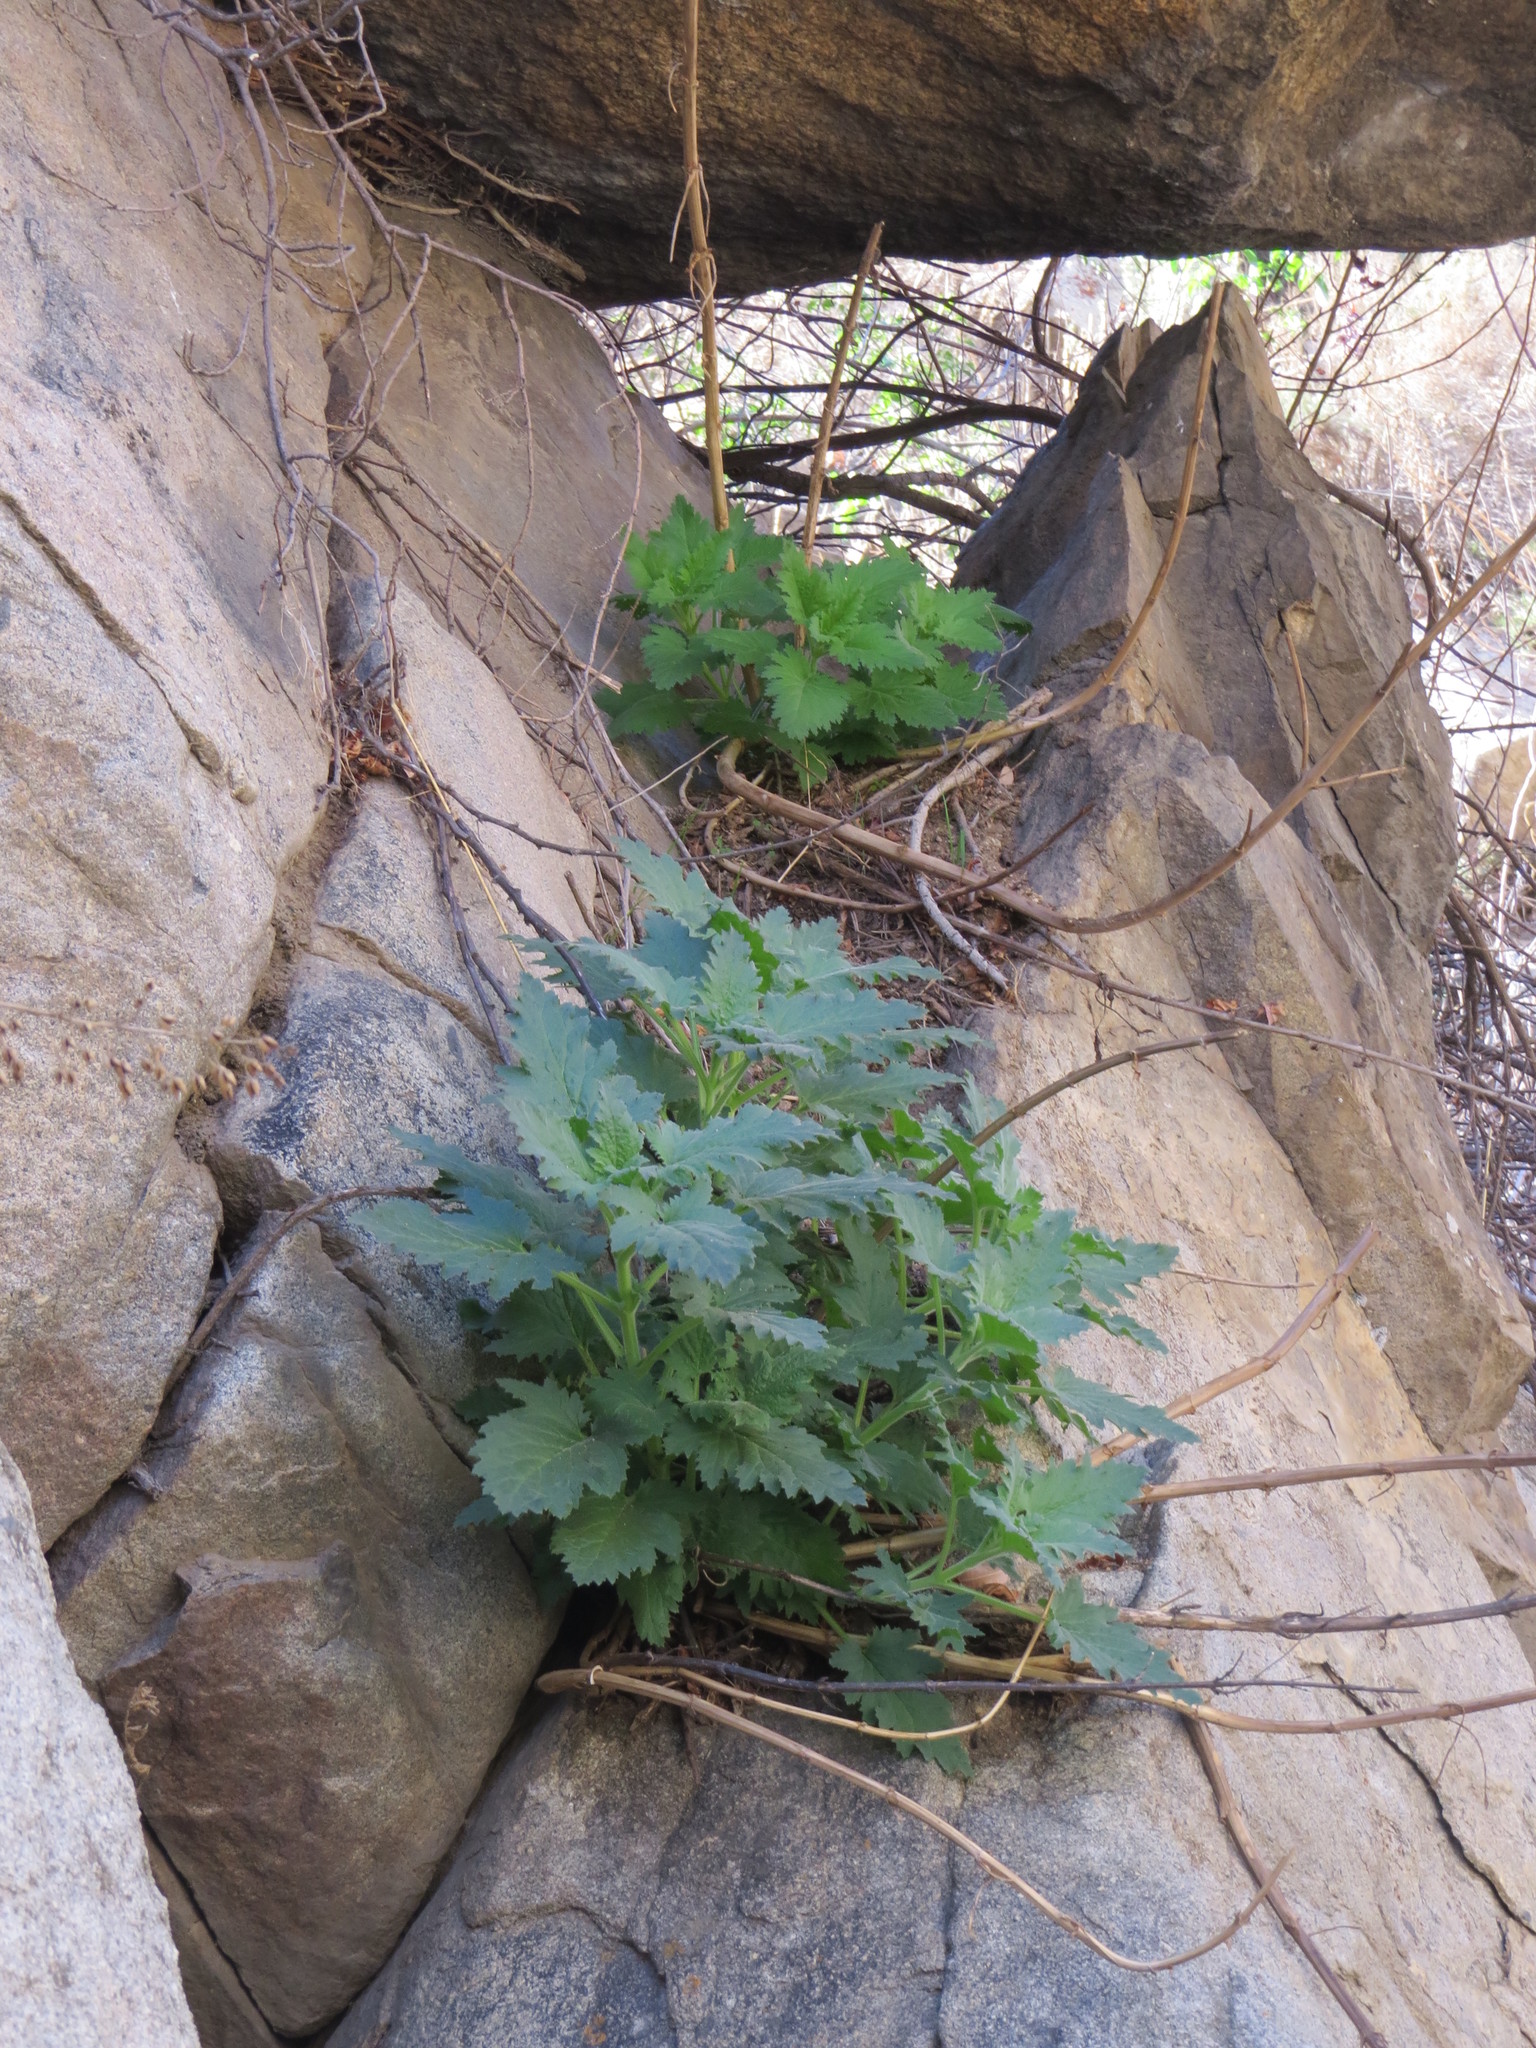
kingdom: Plantae
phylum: Tracheophyta
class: Magnoliopsida
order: Lamiales
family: Scrophulariaceae
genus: Scrophularia
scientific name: Scrophularia californica
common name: California figwort
